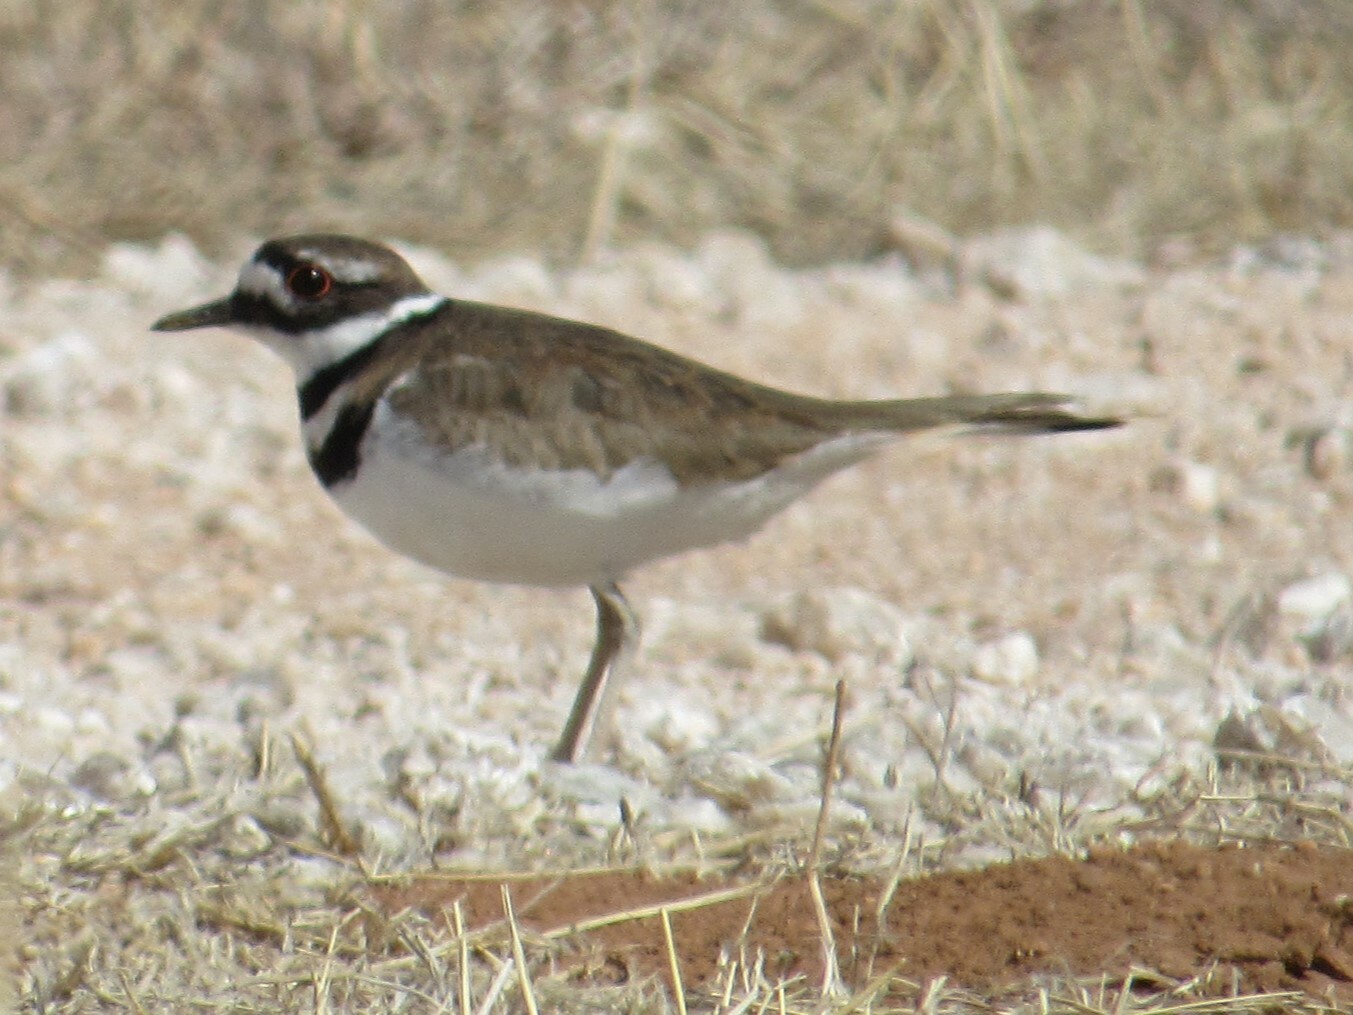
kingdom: Animalia
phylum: Chordata
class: Aves
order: Charadriiformes
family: Charadriidae
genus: Charadrius
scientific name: Charadrius vociferus
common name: Killdeer
